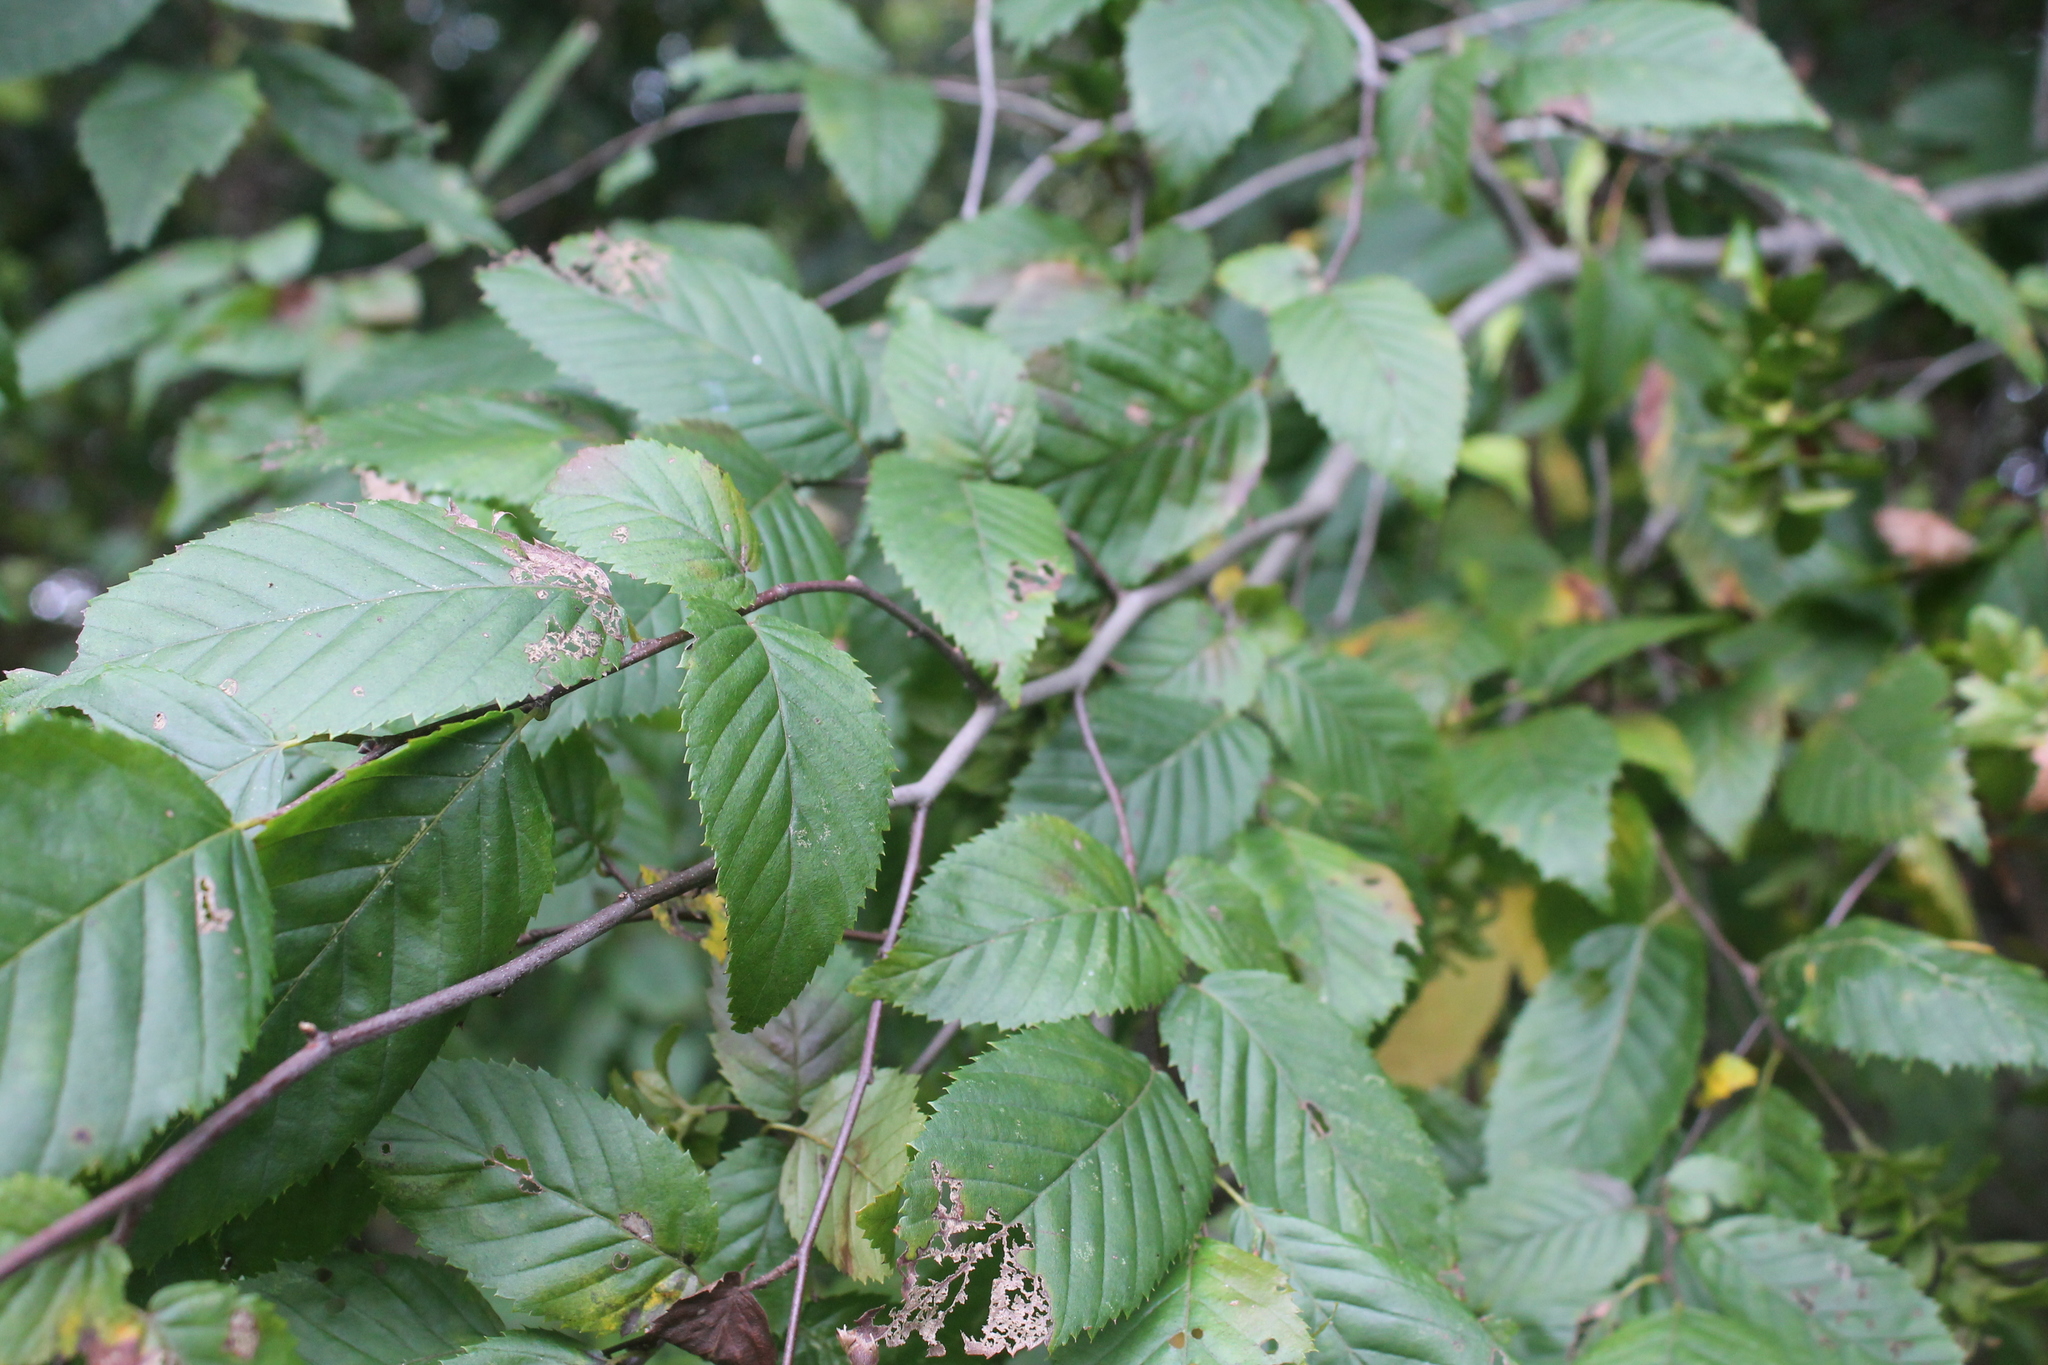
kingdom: Plantae
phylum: Tracheophyta
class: Magnoliopsida
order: Fagales
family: Betulaceae
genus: Carpinus
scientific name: Carpinus caroliniana
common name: American hornbeam
